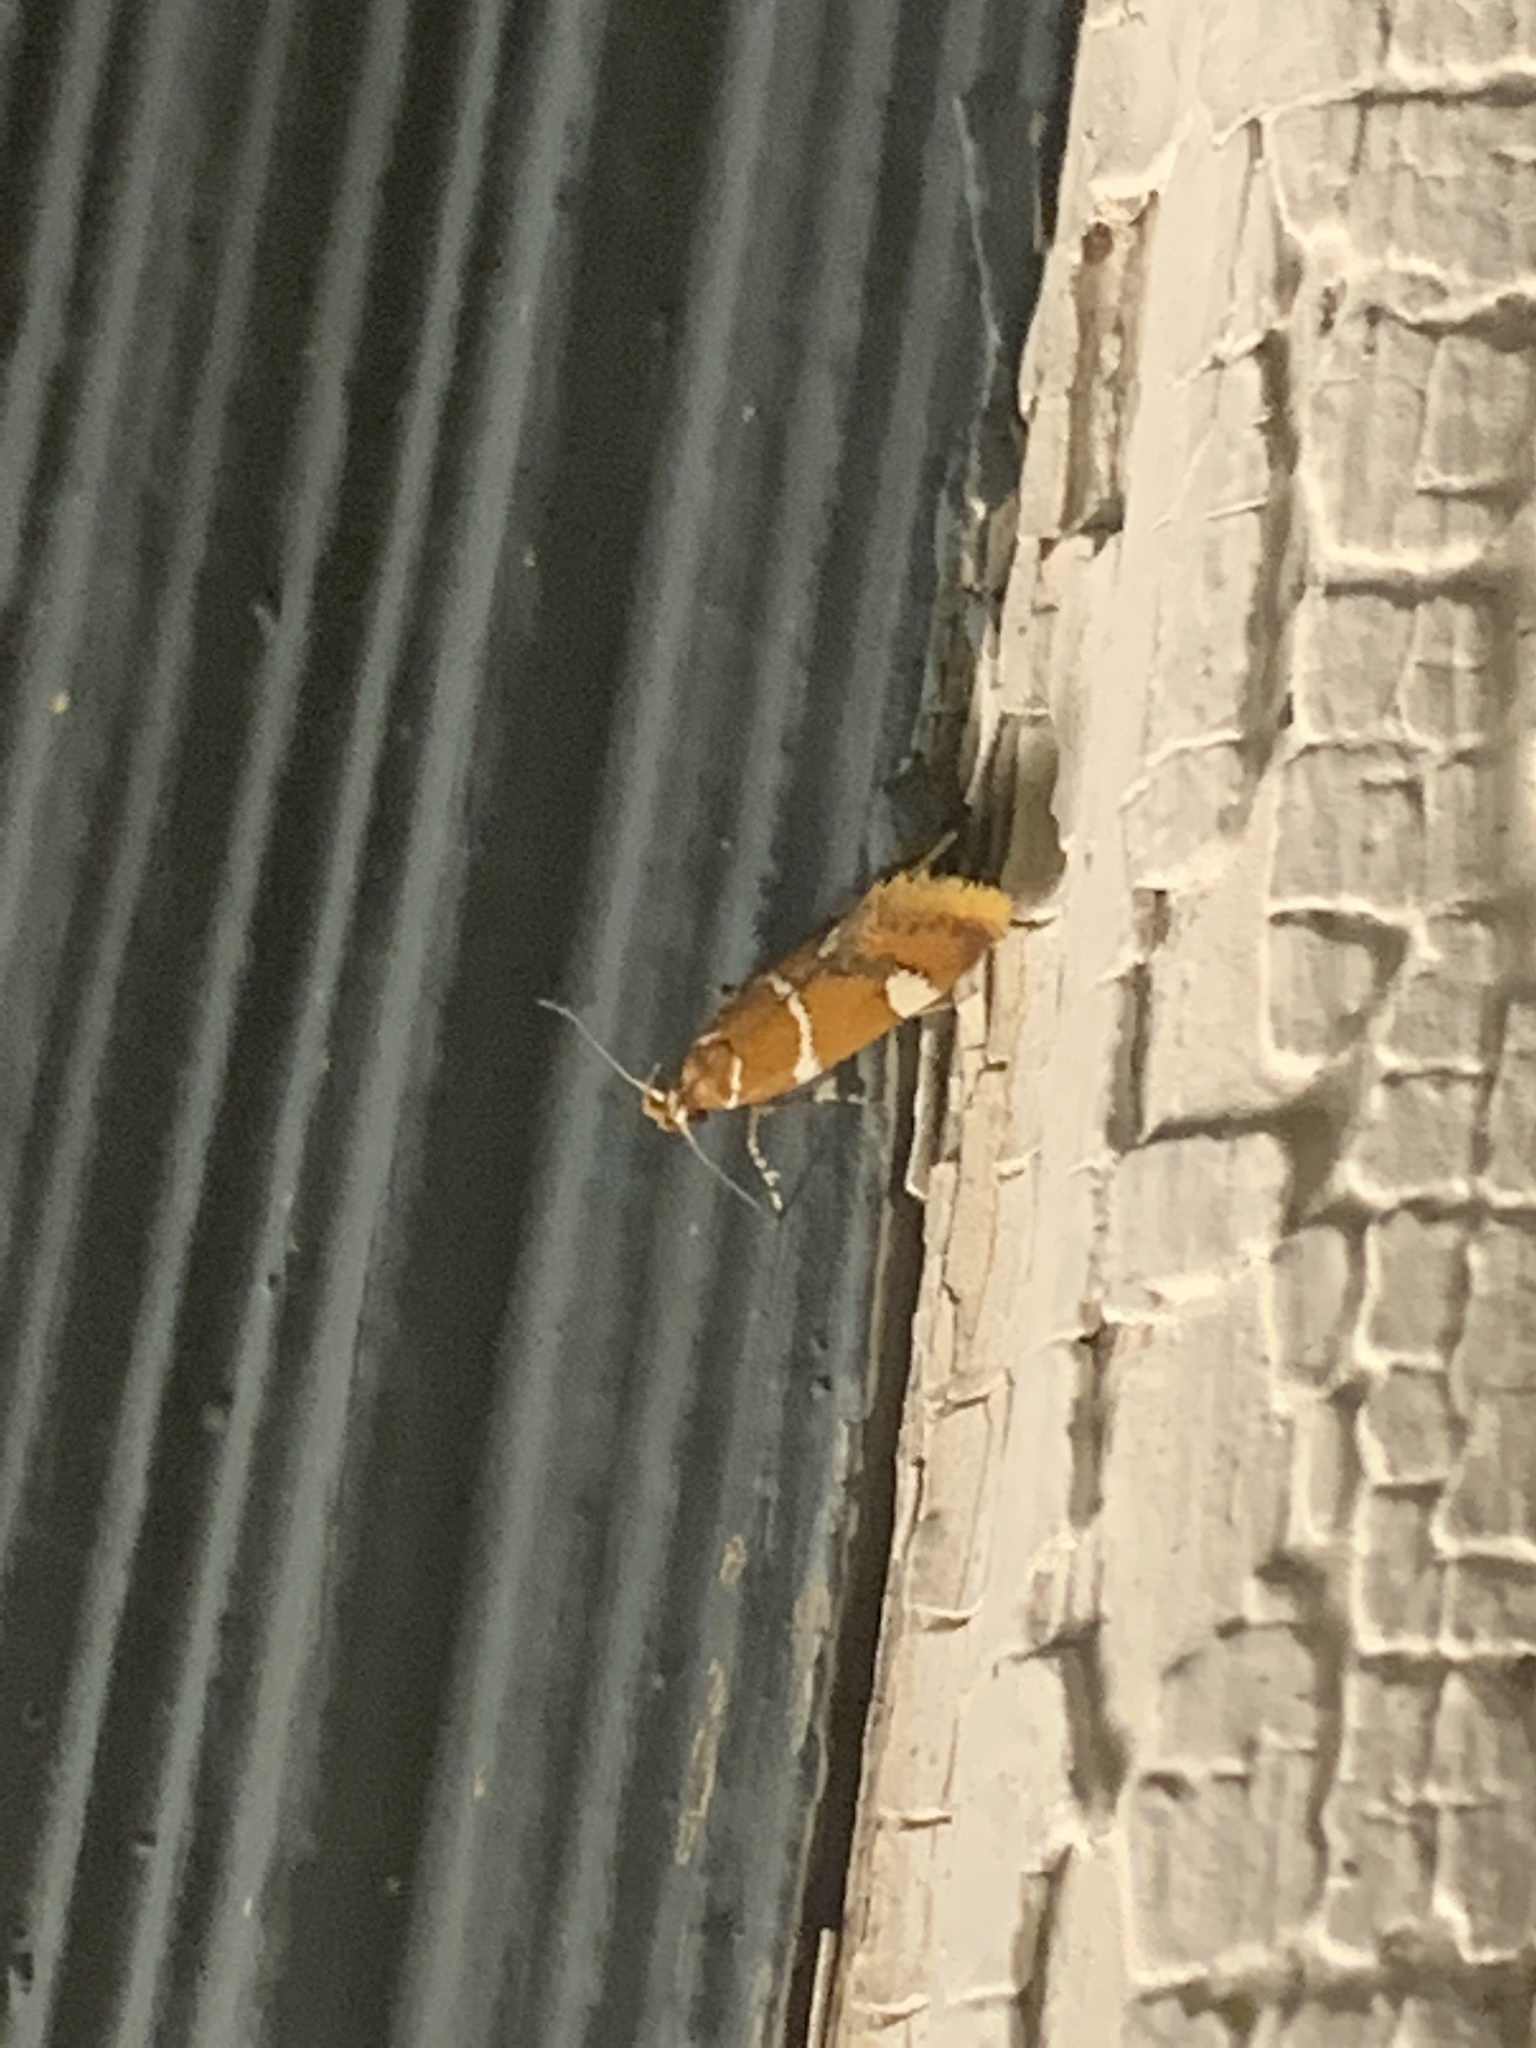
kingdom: Animalia
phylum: Arthropoda
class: Insecta
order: Lepidoptera
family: Oecophoridae
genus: Promalactis
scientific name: Promalactis suzukiella
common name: Moth
